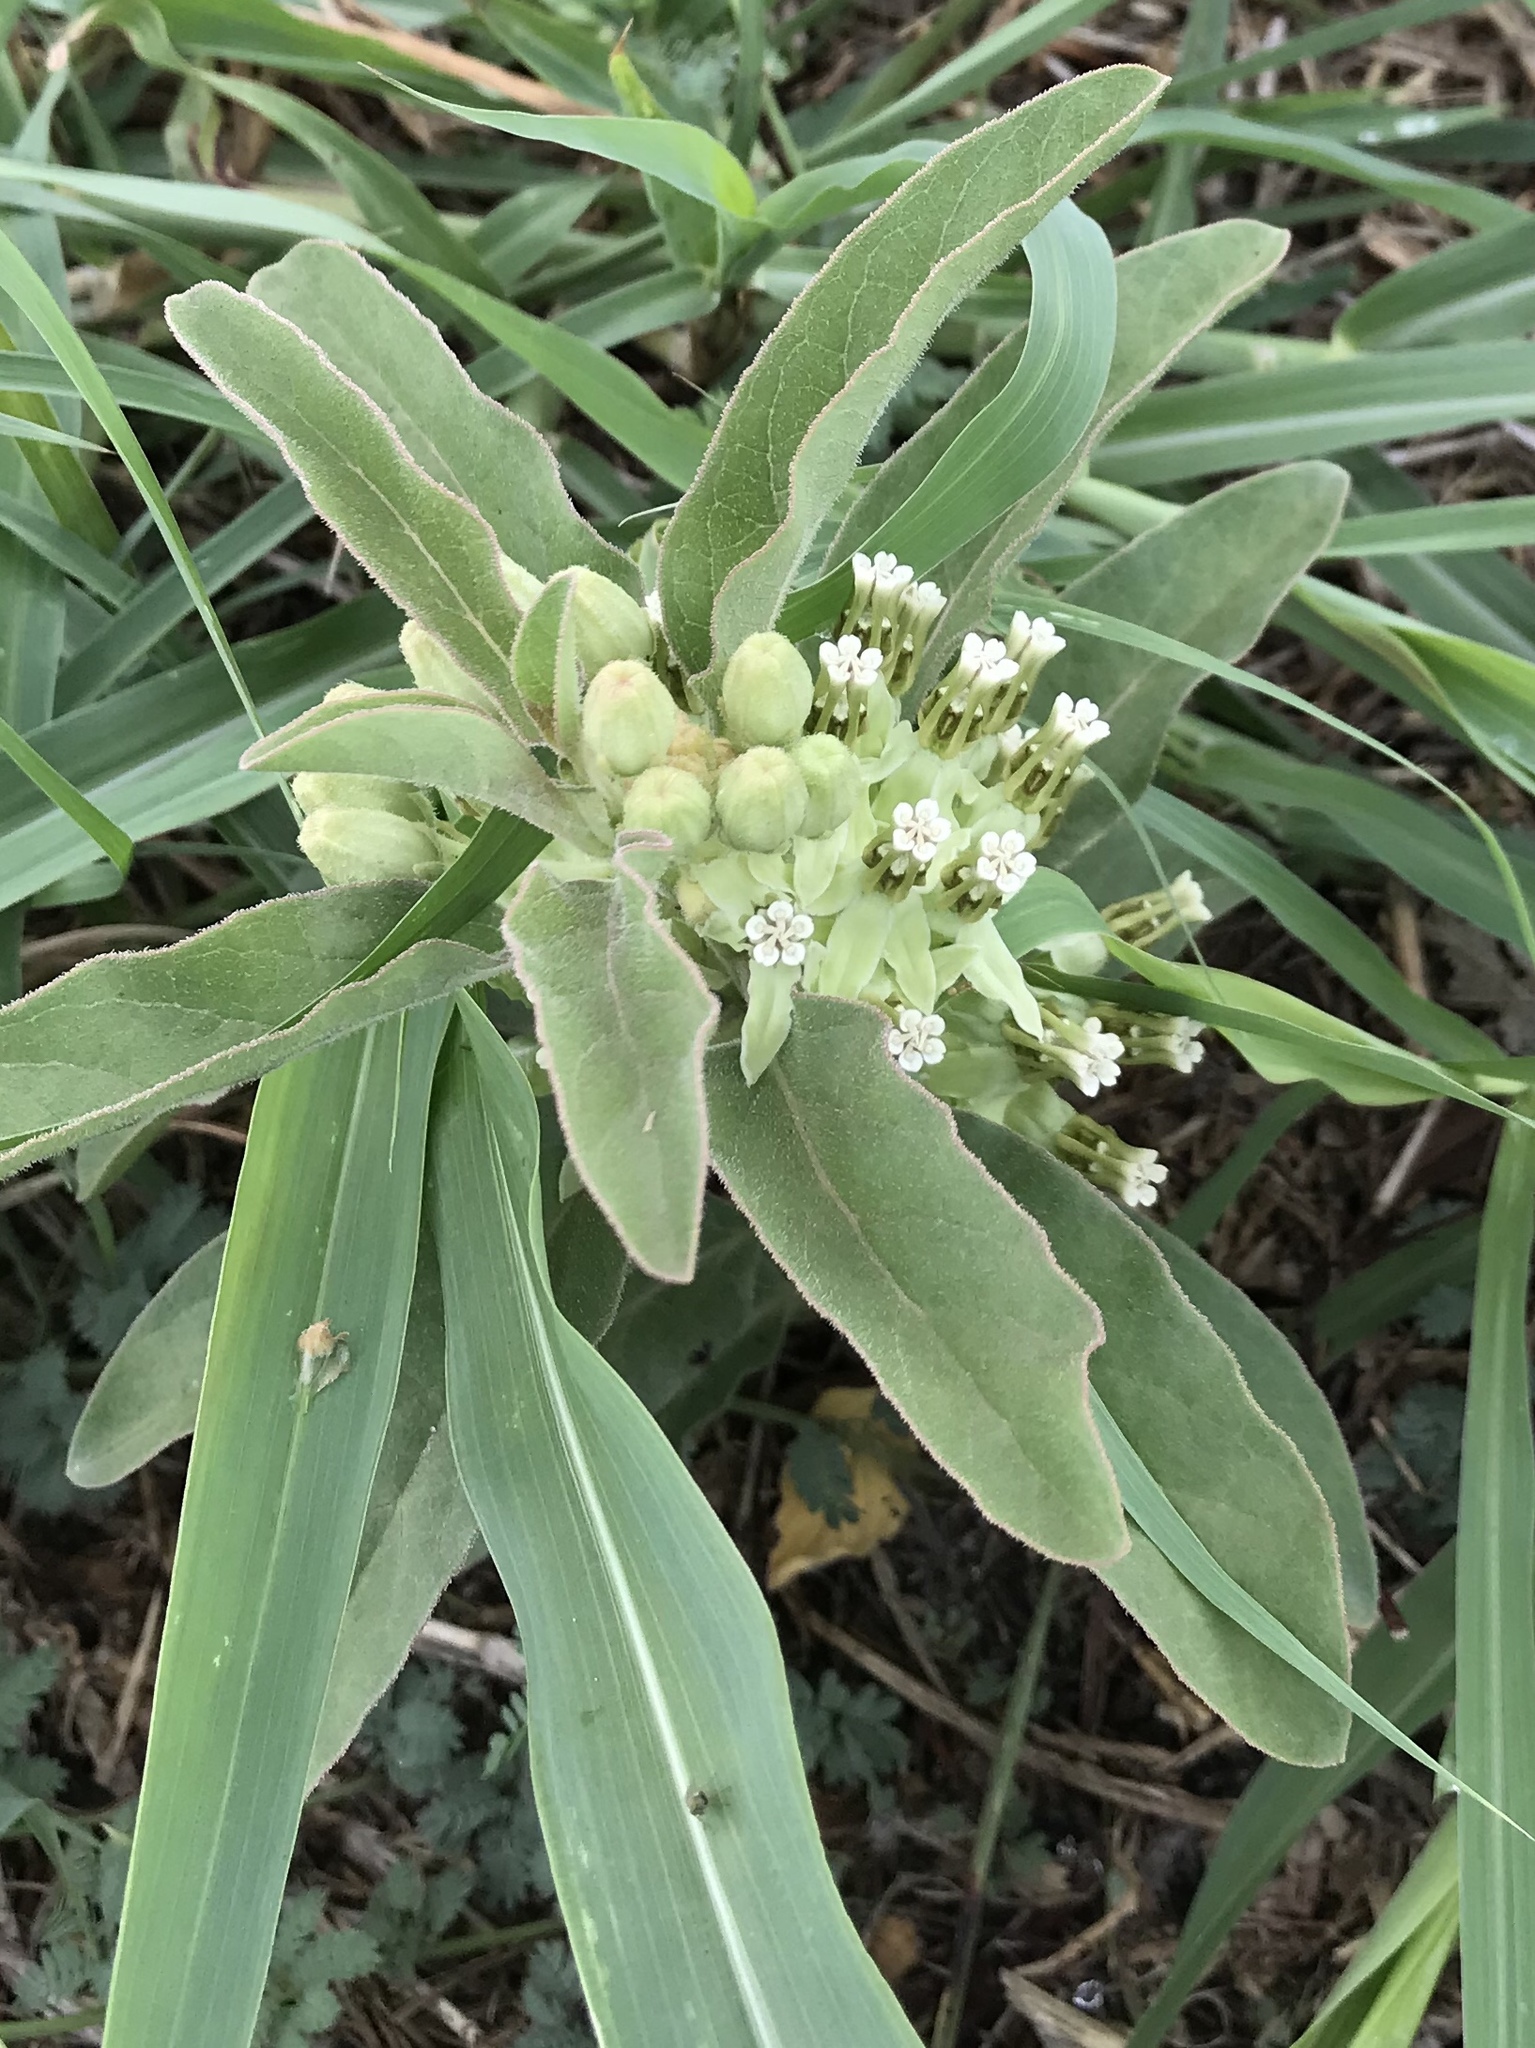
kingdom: Plantae
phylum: Tracheophyta
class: Magnoliopsida
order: Gentianales
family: Apocynaceae
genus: Asclepias
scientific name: Asclepias oenotheroides
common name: Zizotes milkweed
